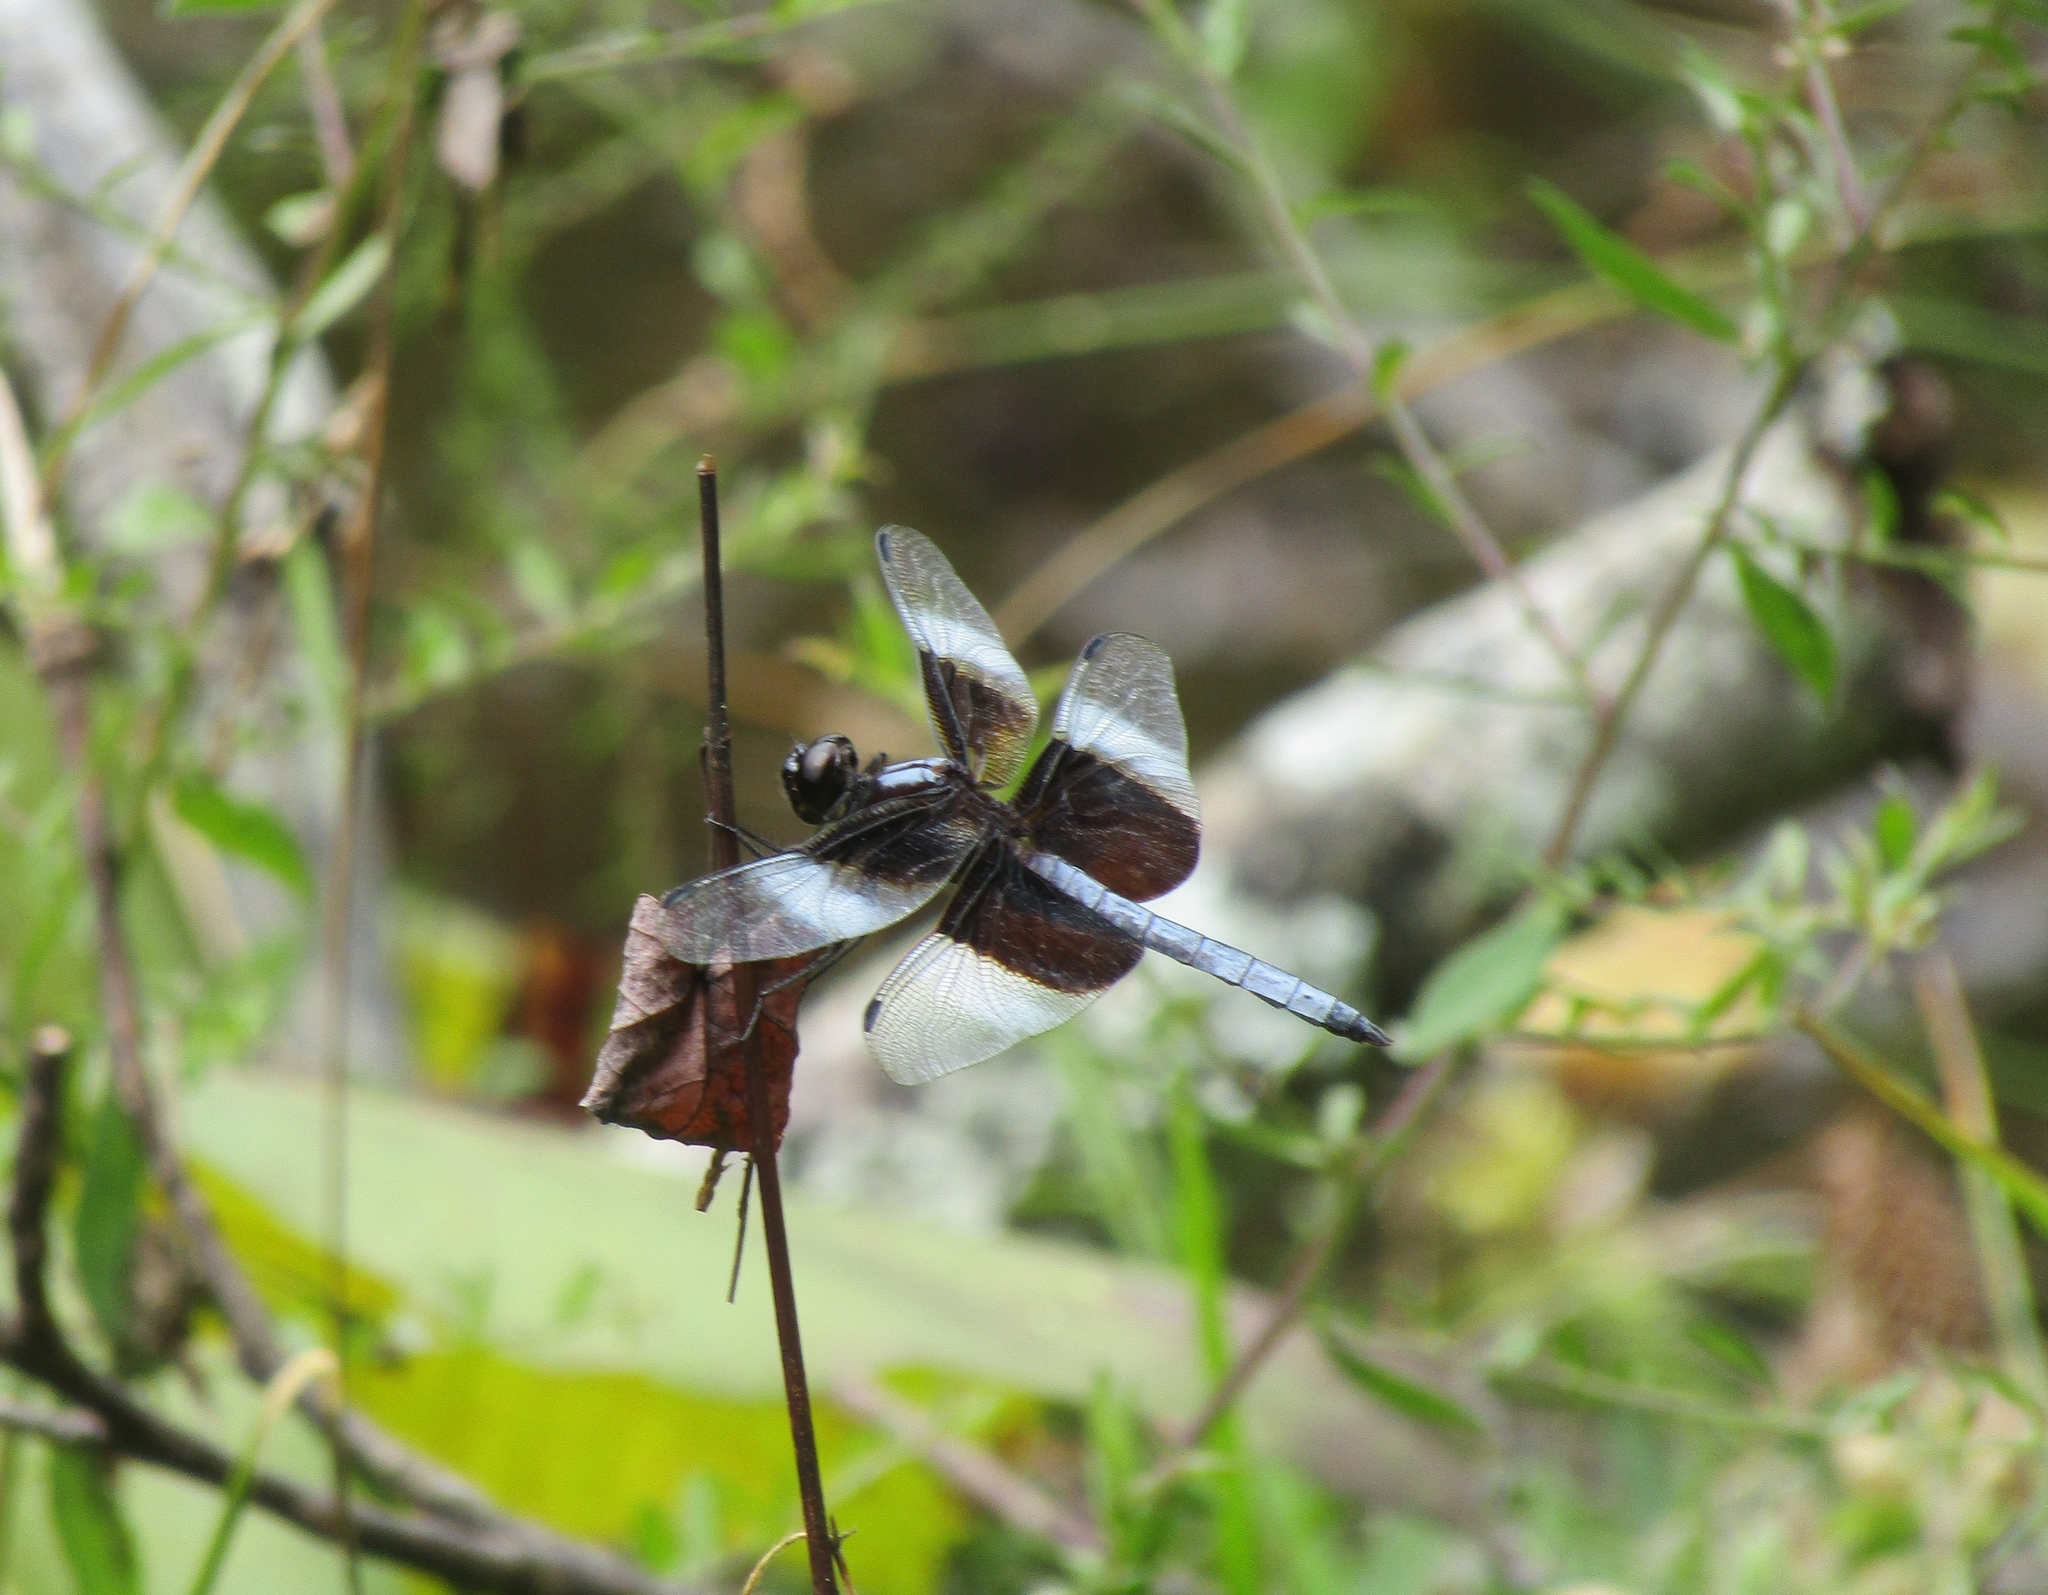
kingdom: Animalia
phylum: Arthropoda
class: Insecta
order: Odonata
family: Libellulidae
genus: Libellula
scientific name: Libellula luctuosa
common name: Widow skimmer
